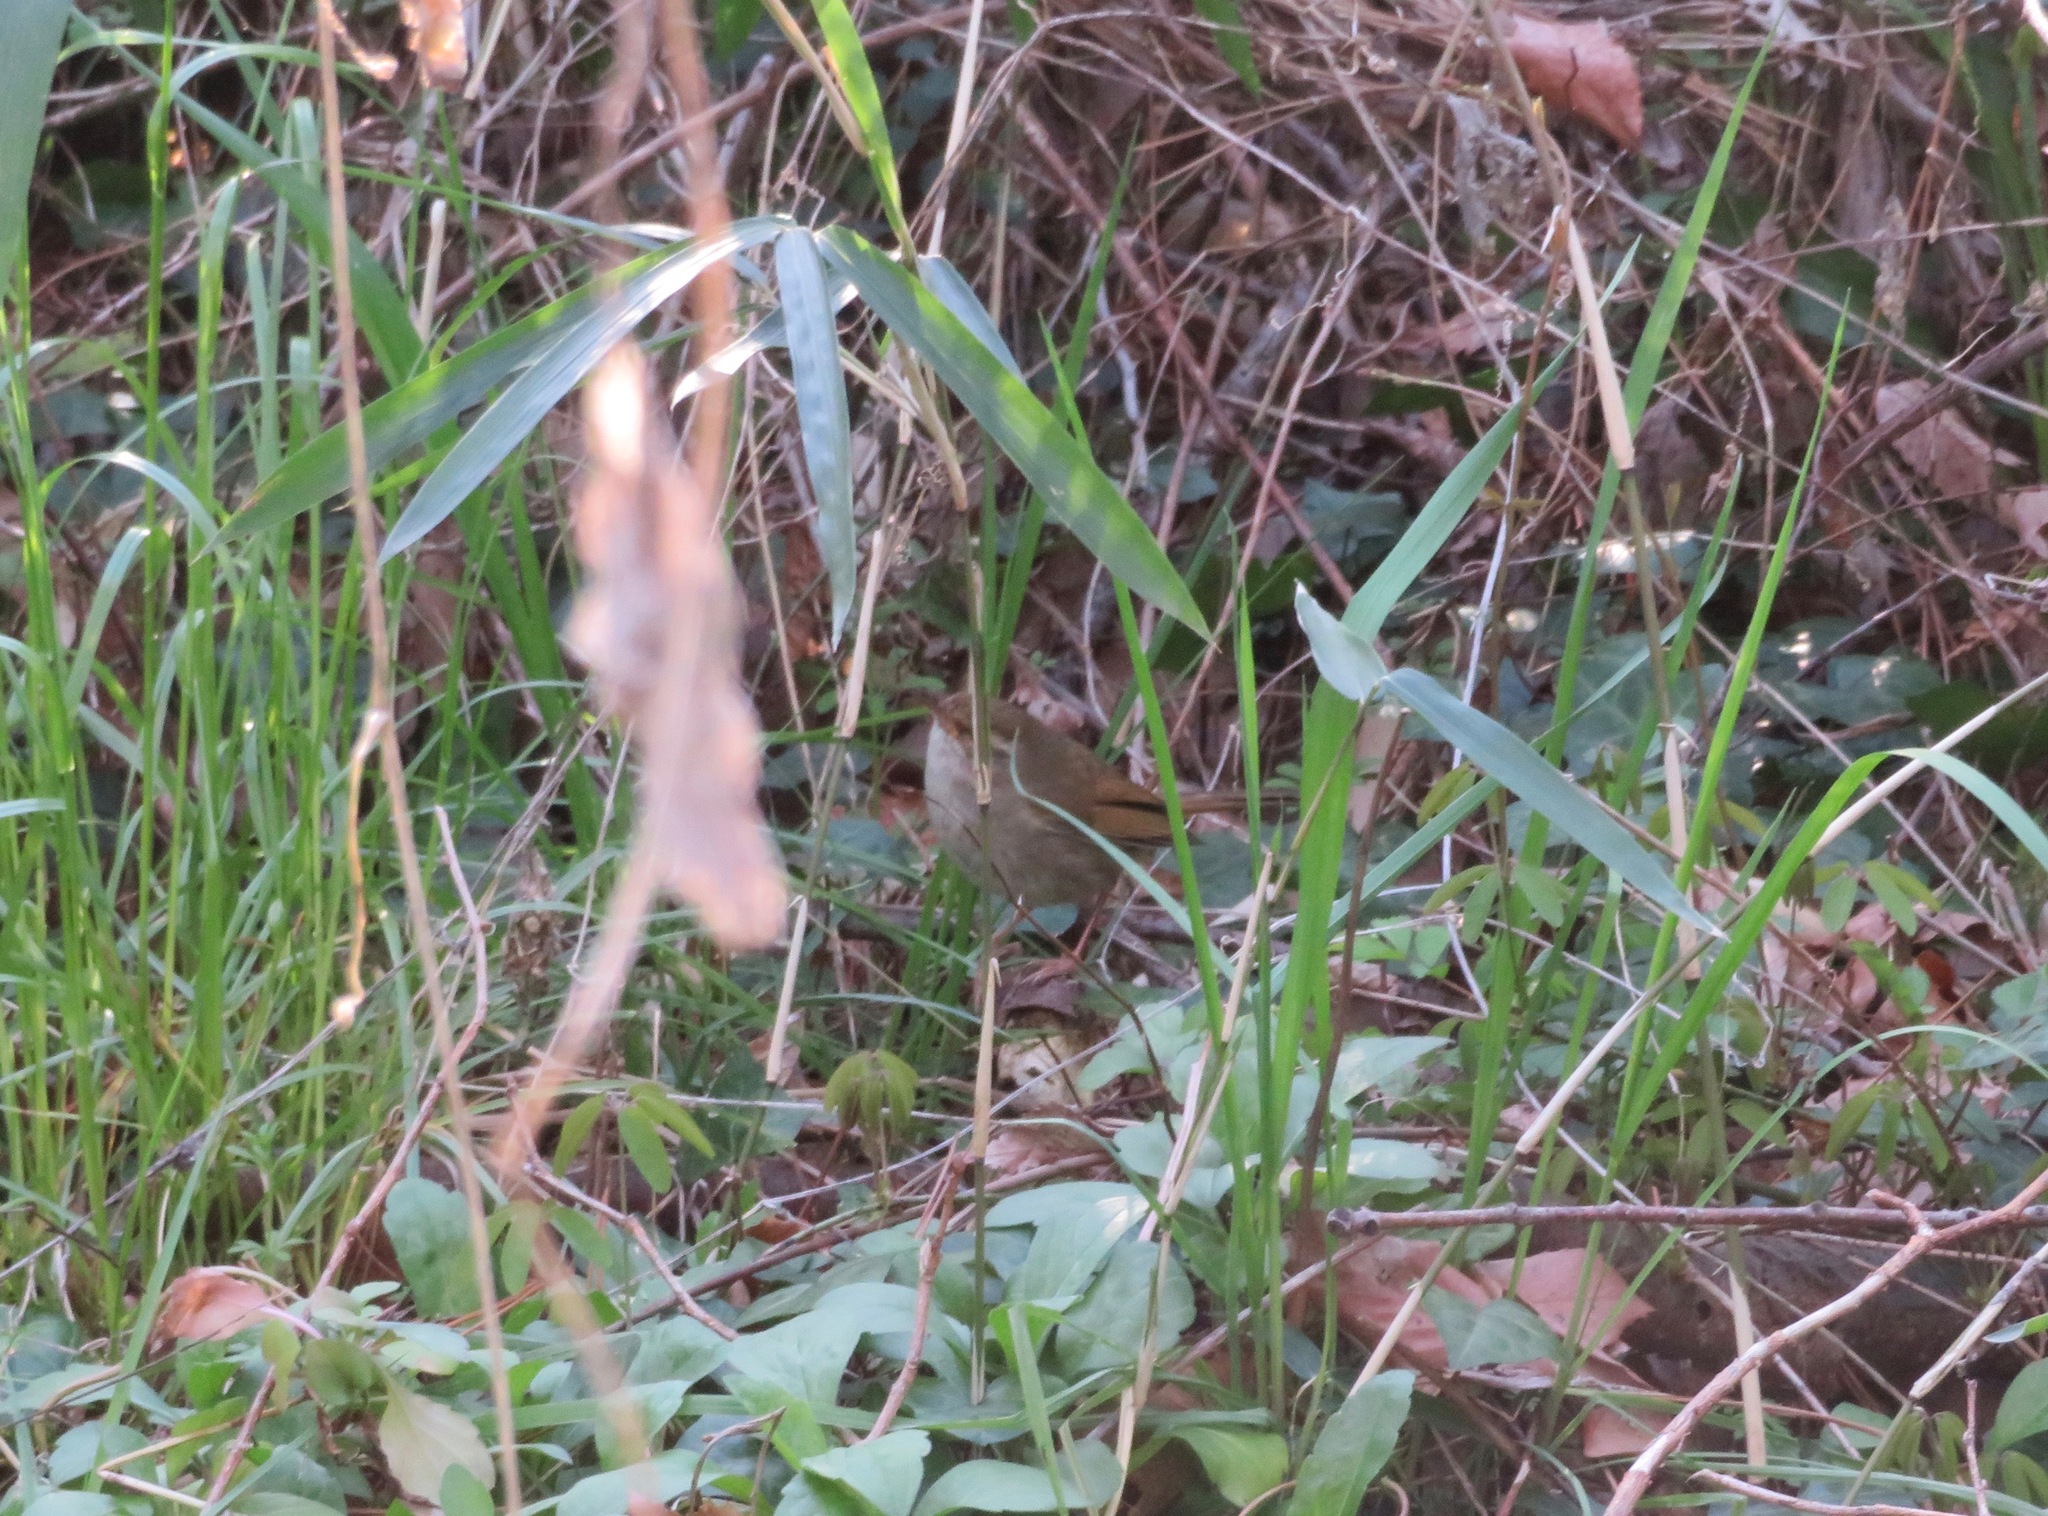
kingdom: Animalia
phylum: Chordata
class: Aves
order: Passeriformes
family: Troglodytidae
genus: Troglodytes
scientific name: Troglodytes troglodytes
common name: Eurasian wren
